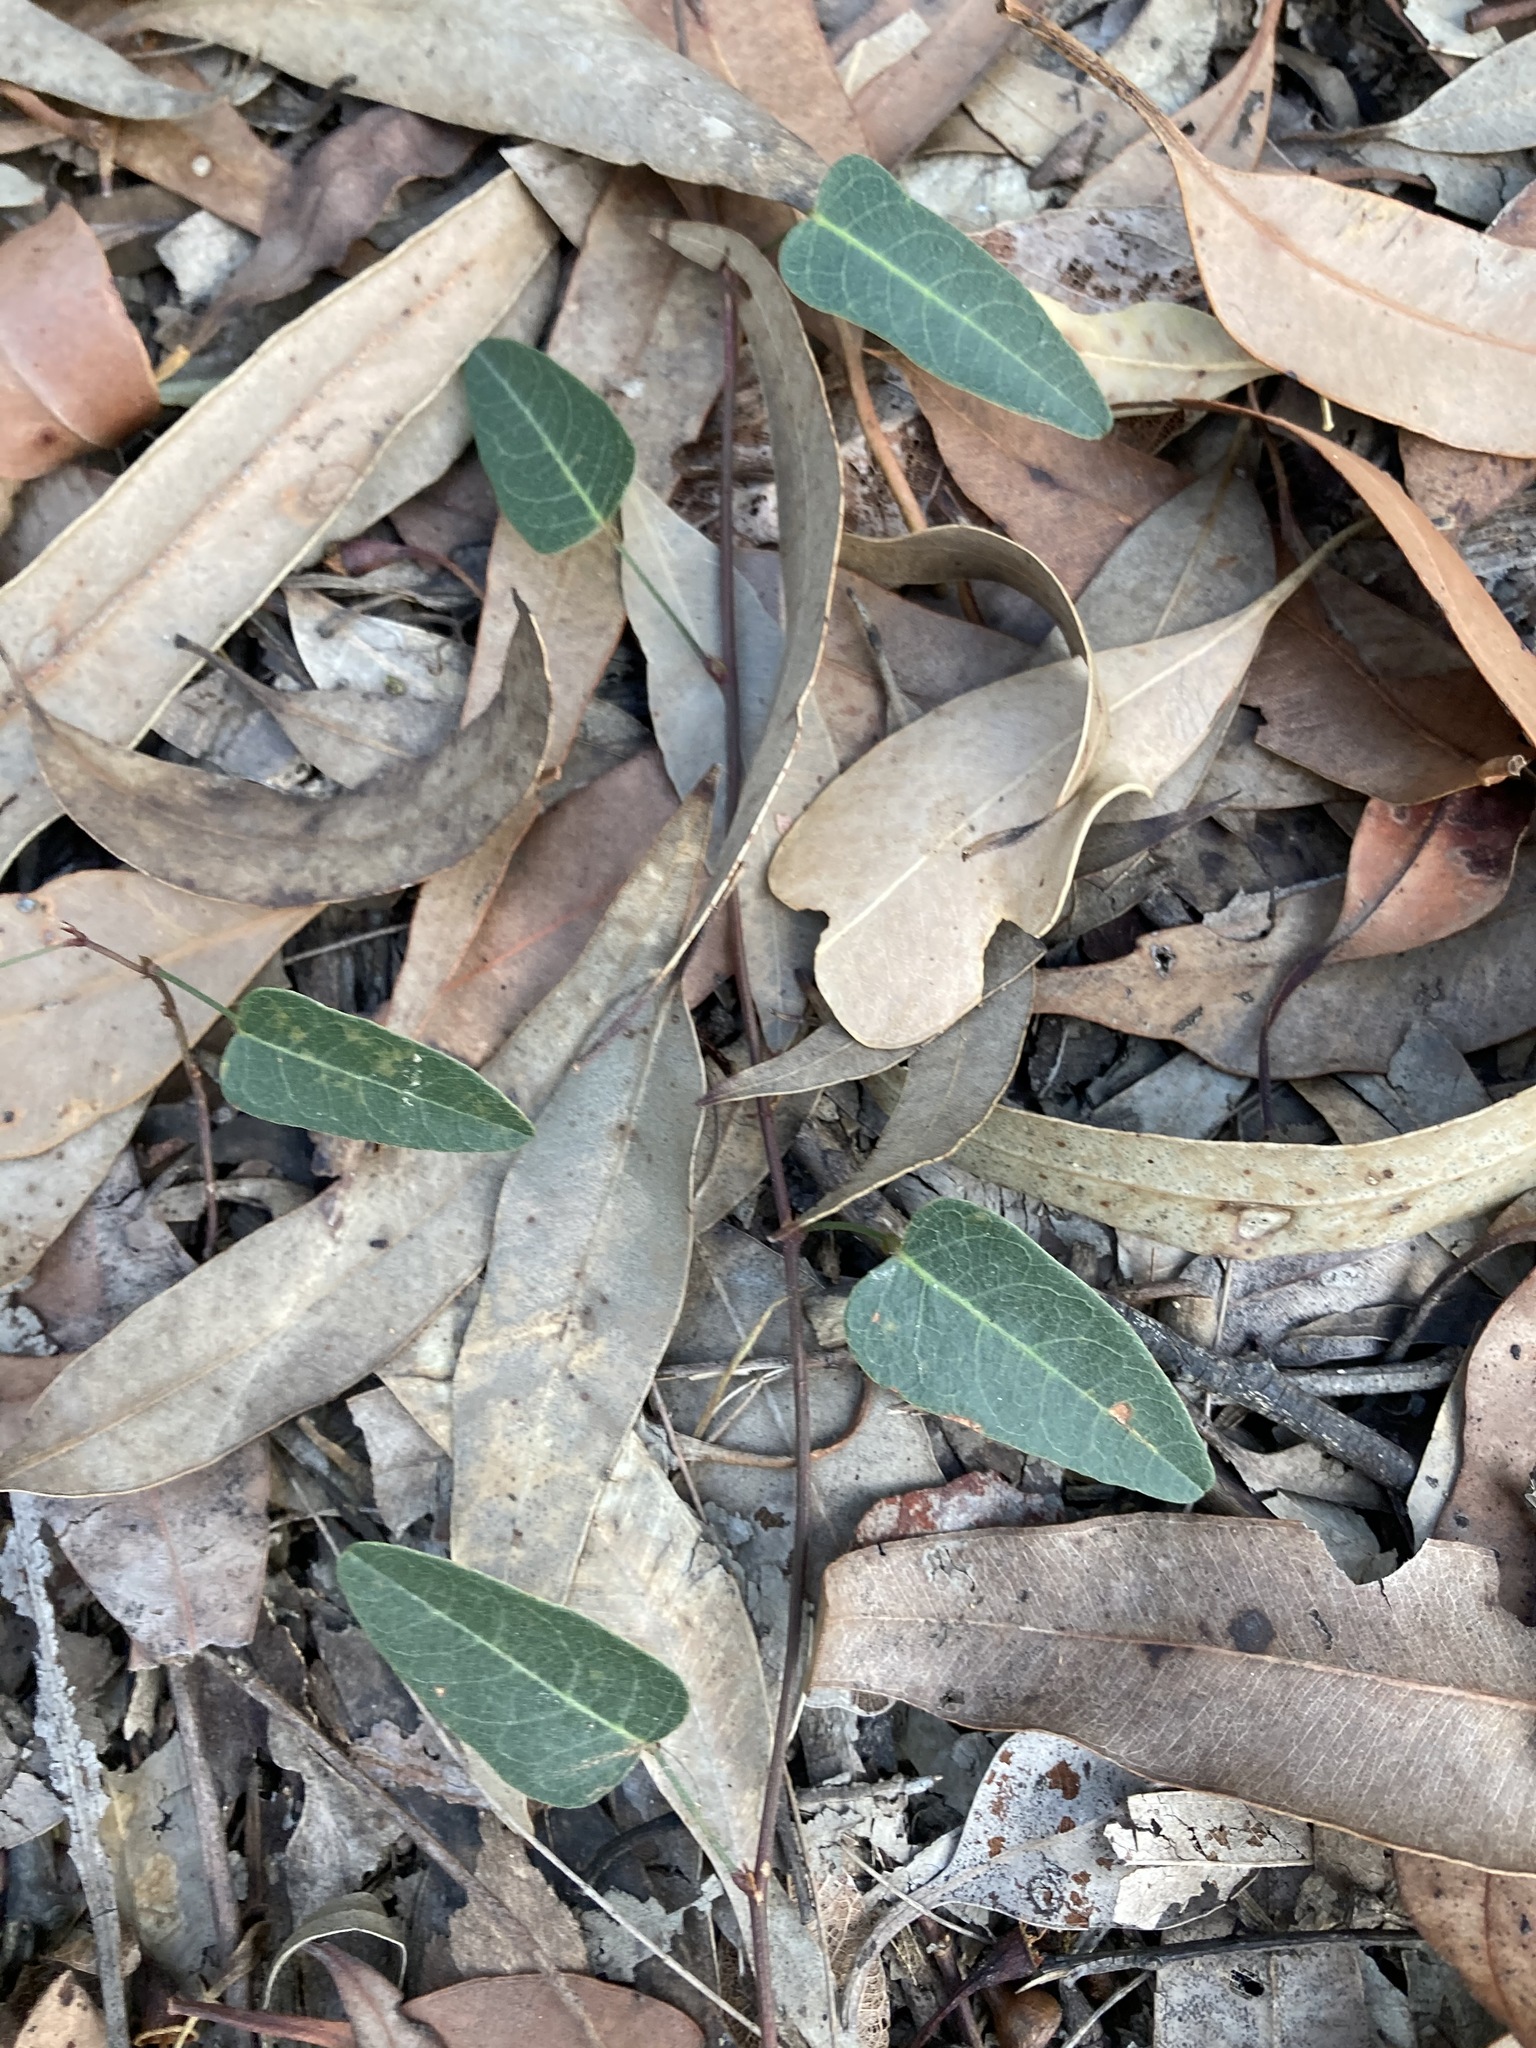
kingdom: Plantae
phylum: Tracheophyta
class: Magnoliopsida
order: Fabales
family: Fabaceae
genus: Hardenbergia
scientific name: Hardenbergia violacea
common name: Coral-pea
